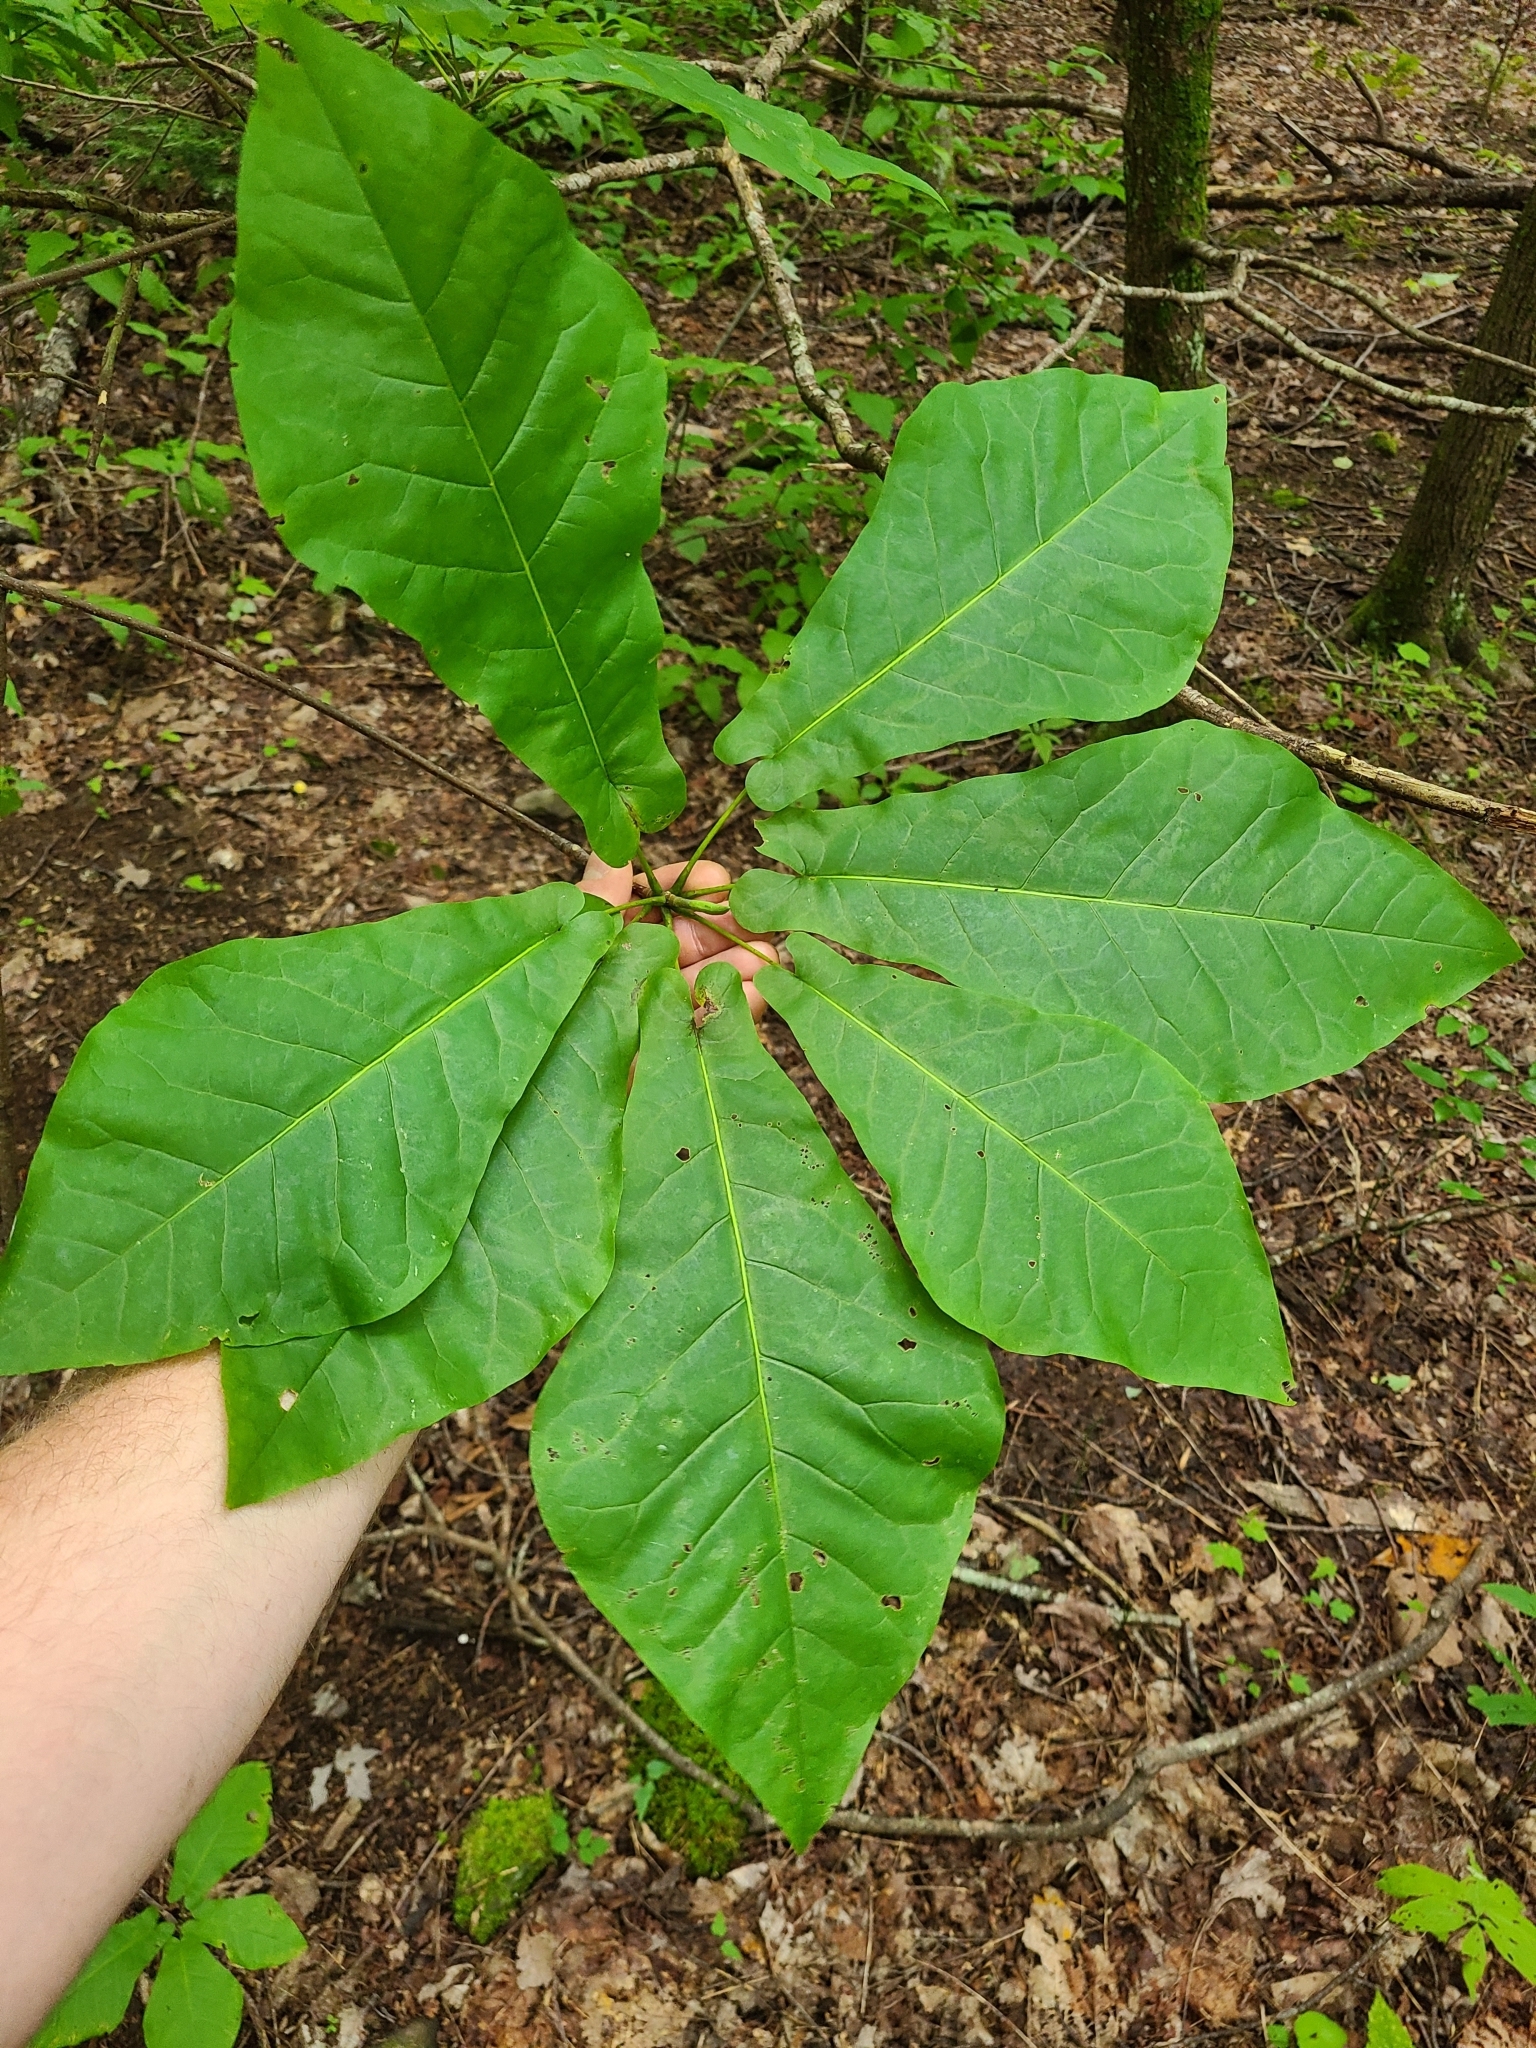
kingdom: Plantae
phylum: Tracheophyta
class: Magnoliopsida
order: Magnoliales
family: Magnoliaceae
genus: Magnolia
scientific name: Magnolia fraseri
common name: Fraser's magnolia
